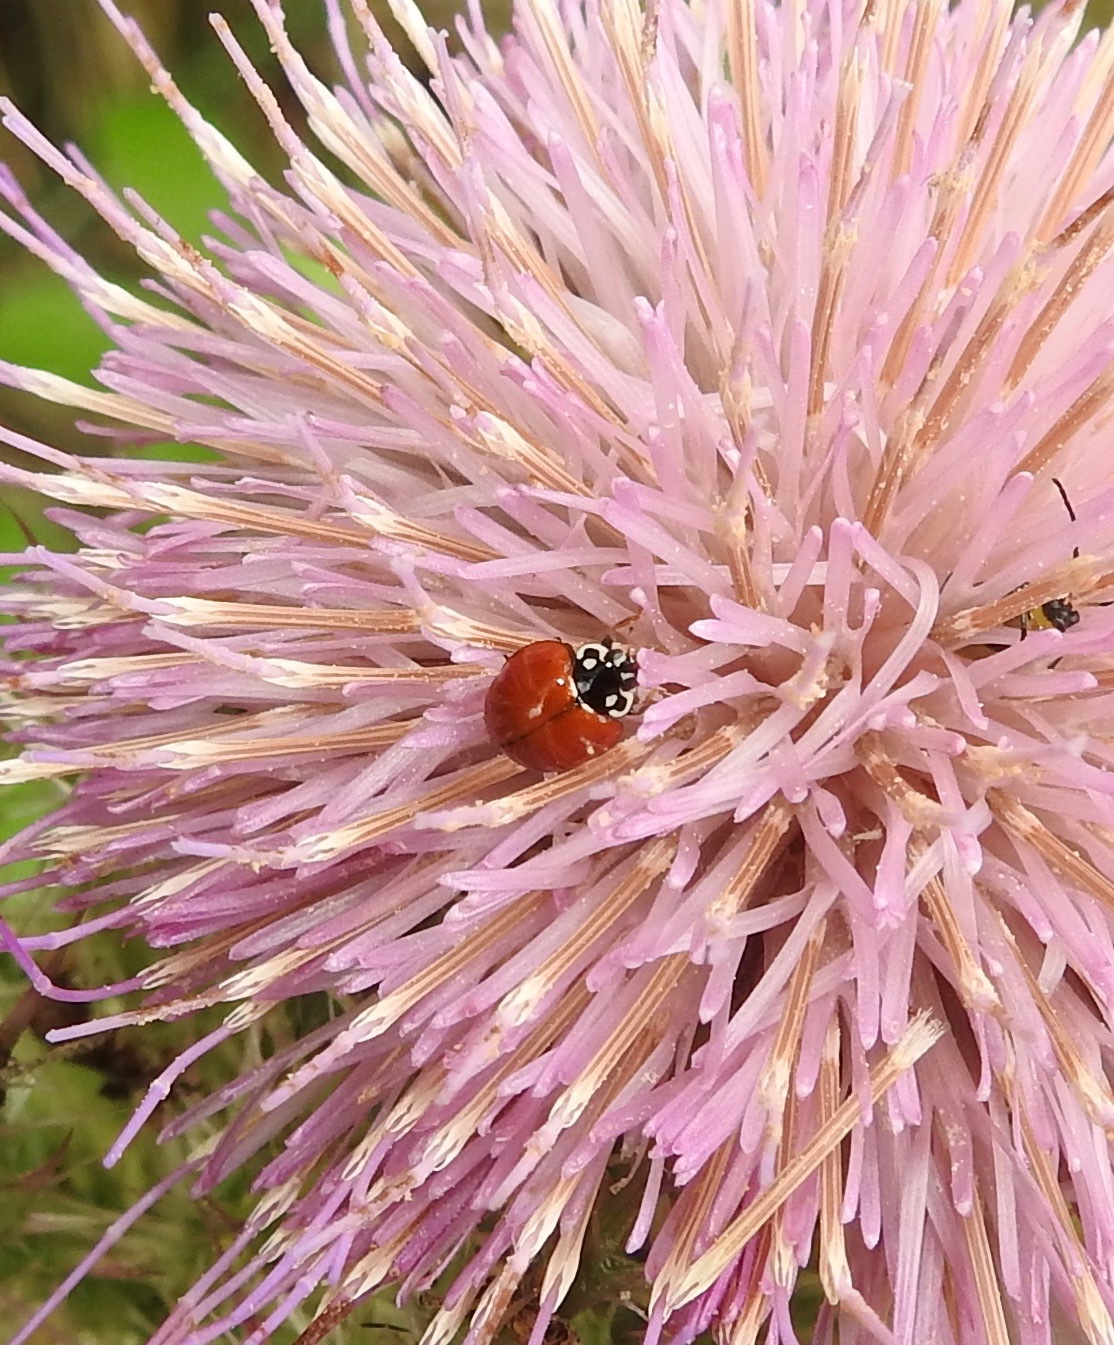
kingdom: Animalia
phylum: Arthropoda
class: Insecta
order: Coleoptera
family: Coccinellidae
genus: Cycloneda
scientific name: Cycloneda sanguinea
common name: Ladybird beetle
